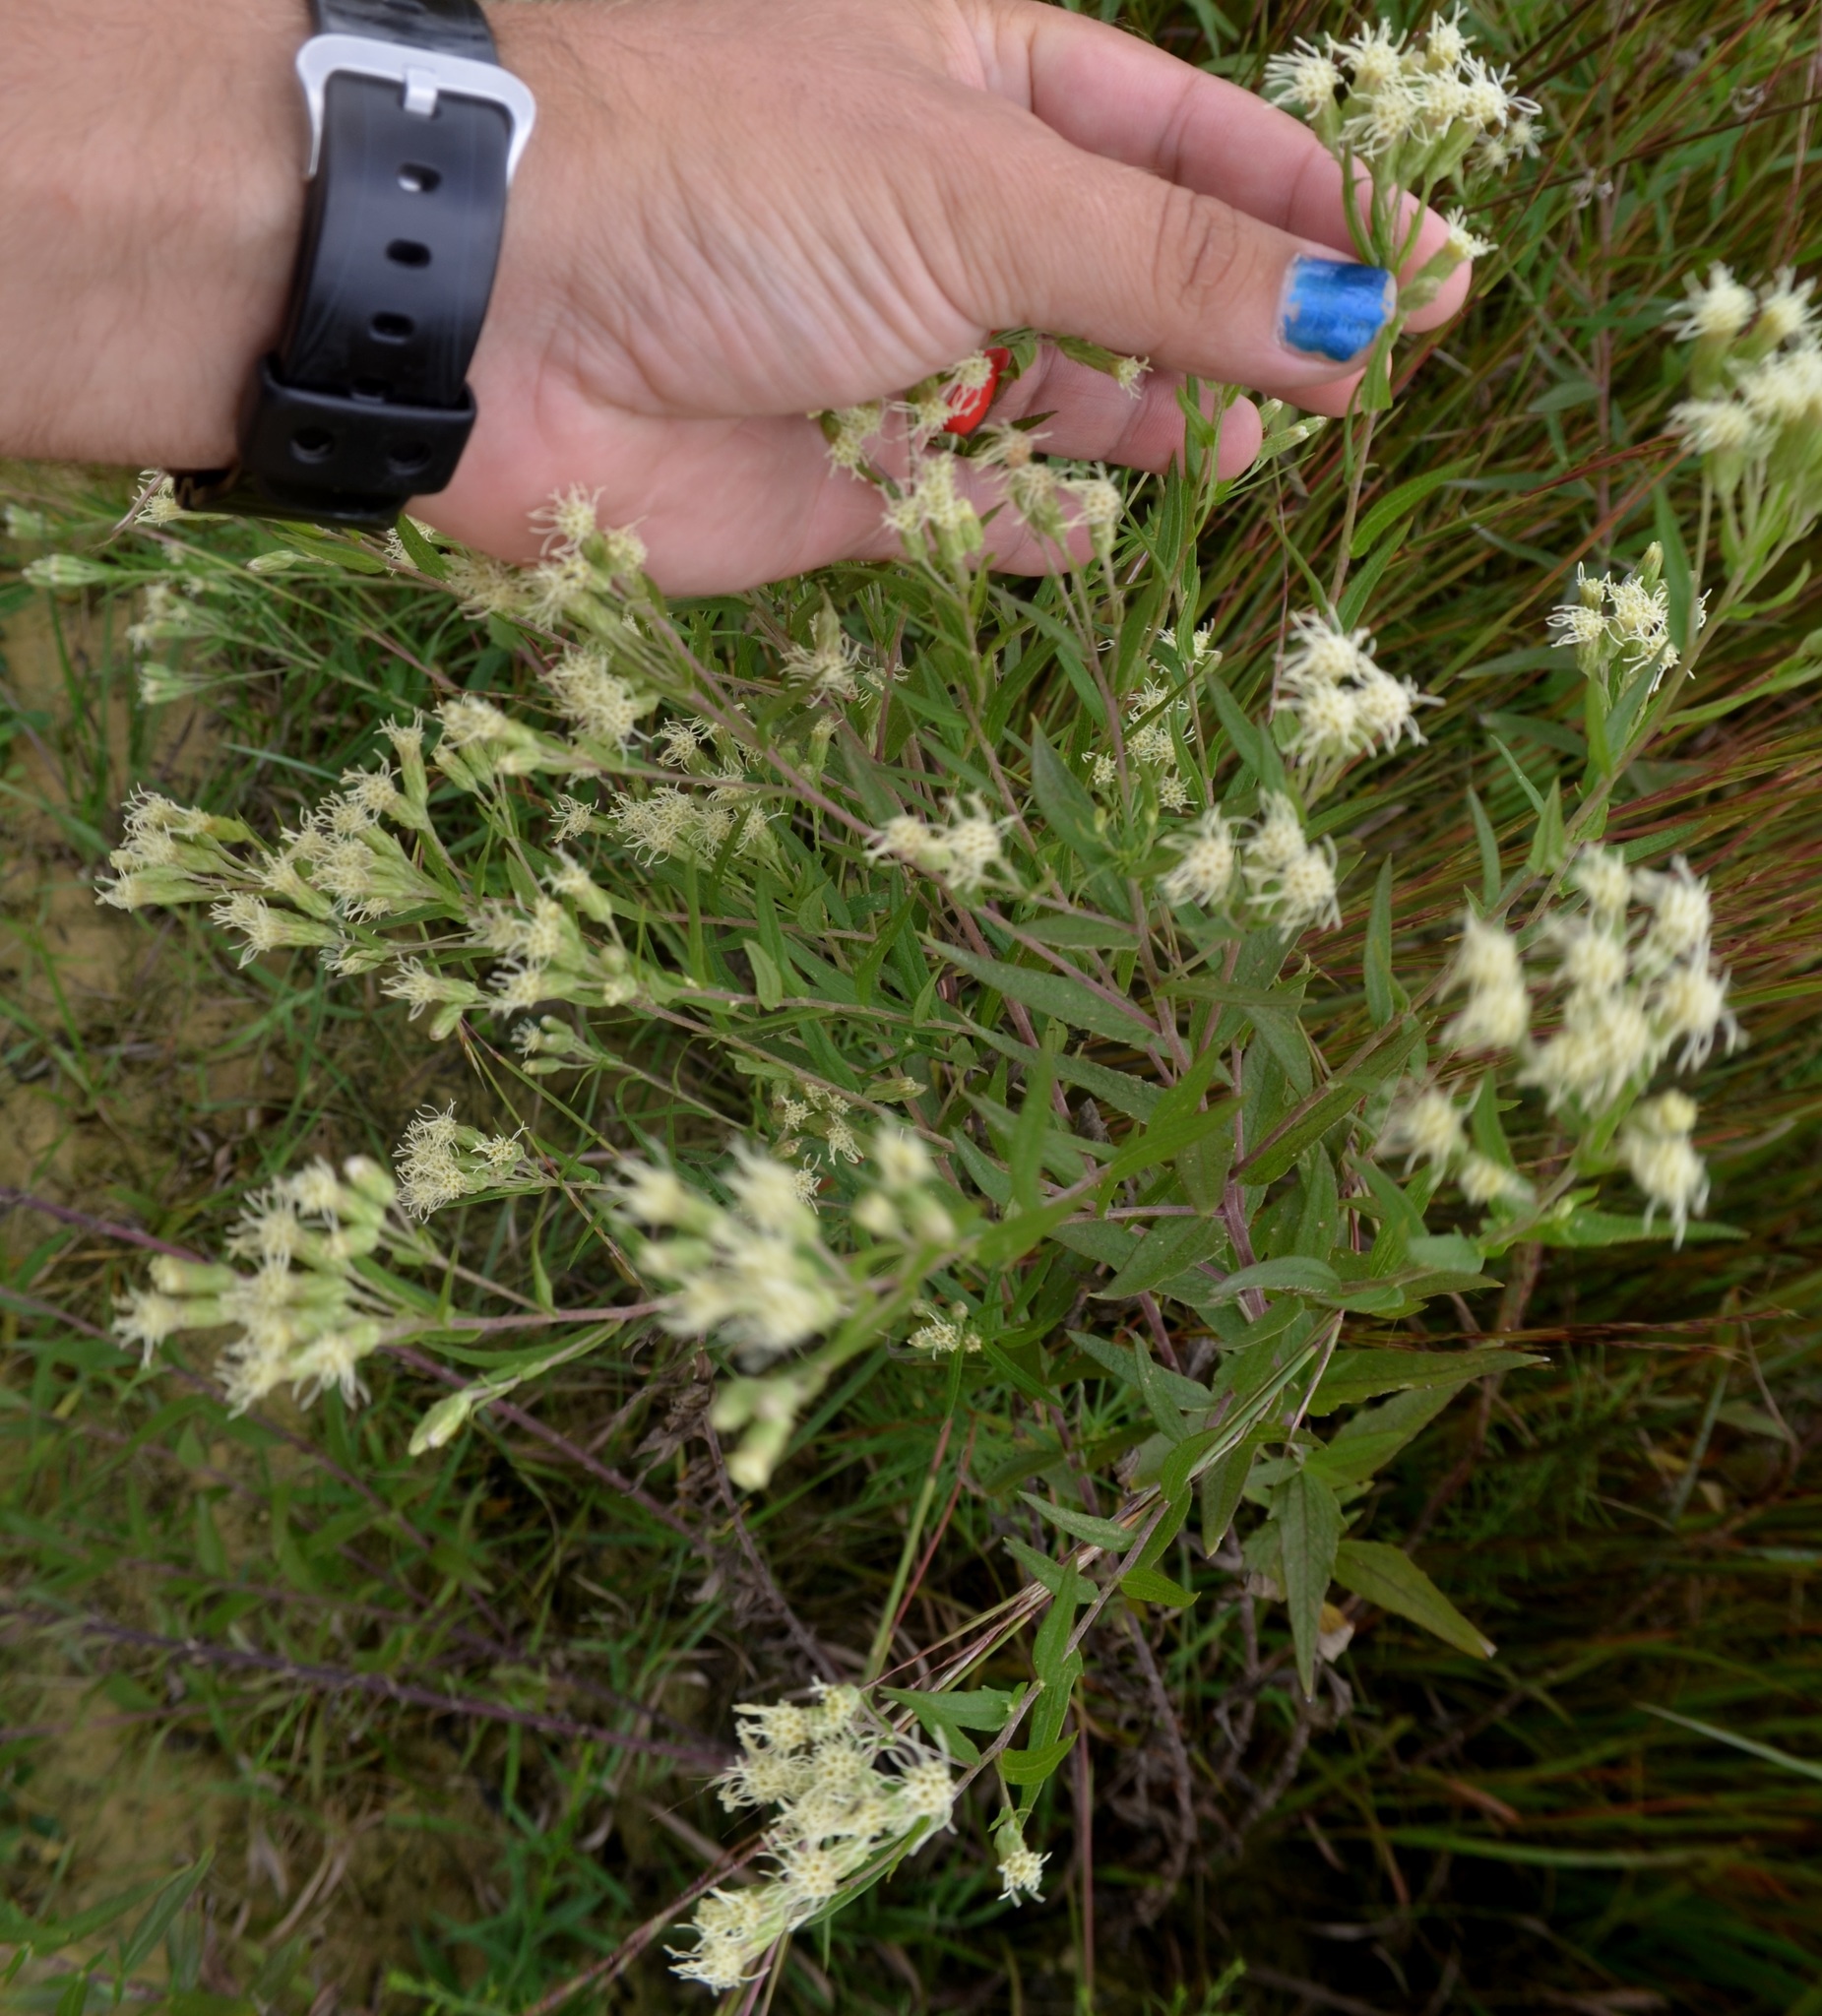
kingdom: Plantae
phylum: Tracheophyta
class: Magnoliopsida
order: Asterales
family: Asteraceae
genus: Brickellia
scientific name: Brickellia eupatorioides
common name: False boneset
